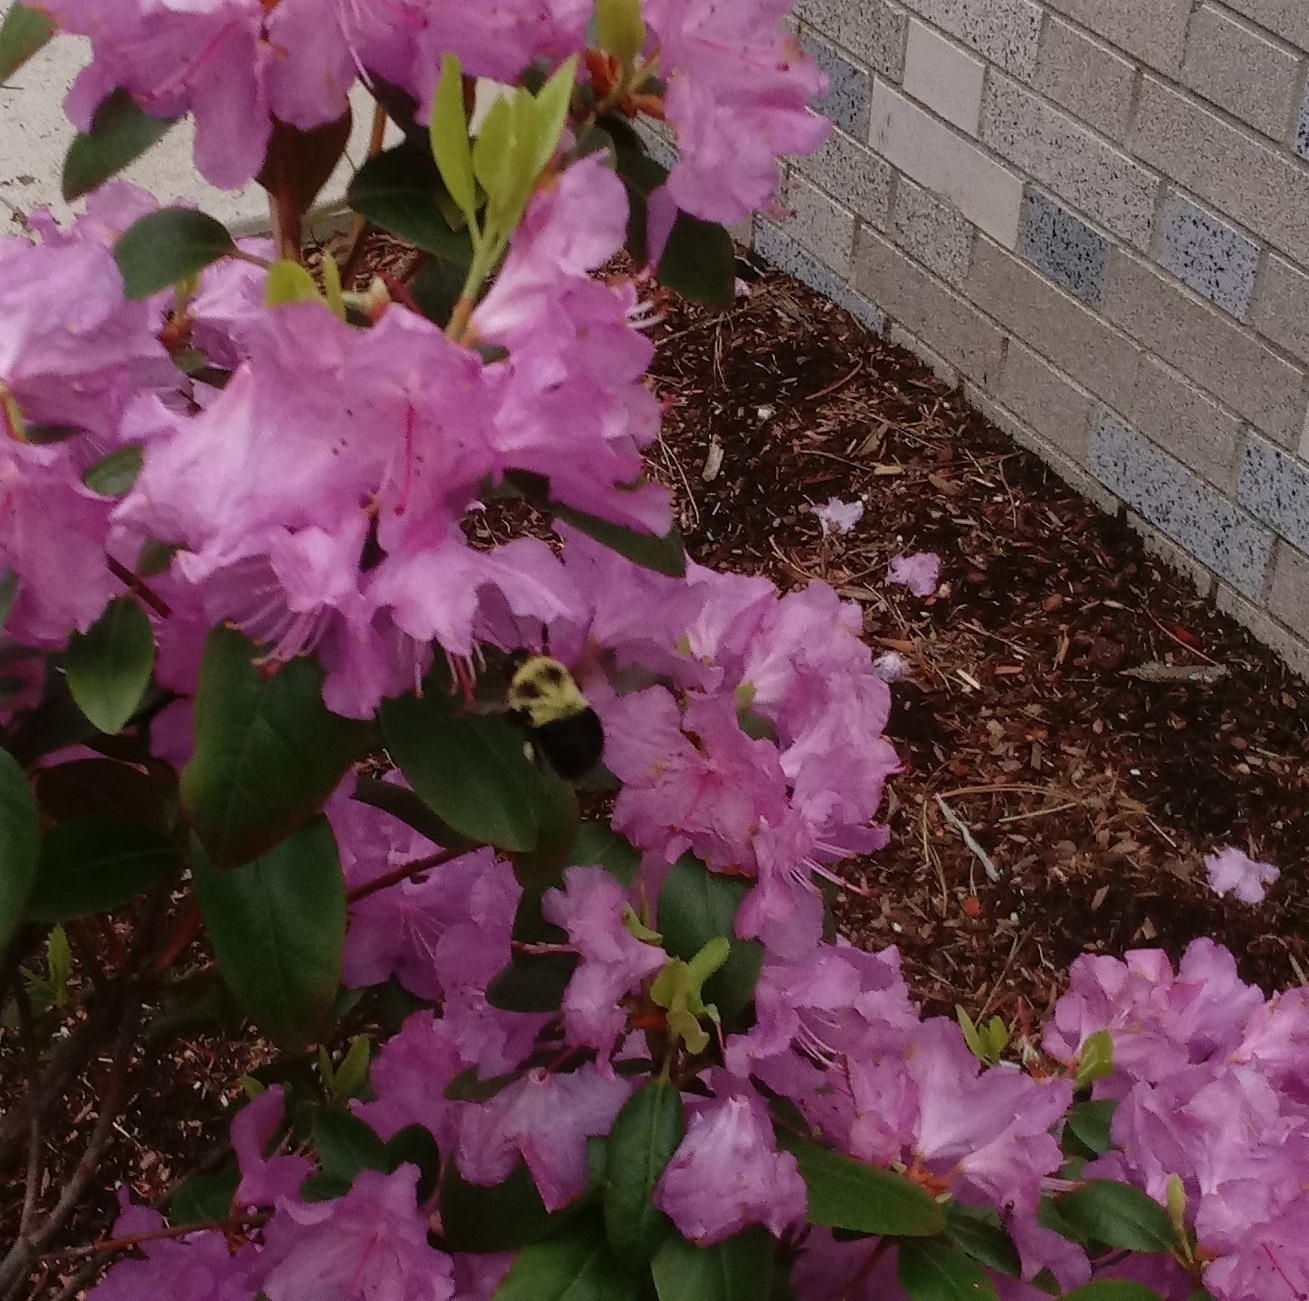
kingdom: Animalia
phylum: Arthropoda
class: Insecta
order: Hymenoptera
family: Apidae
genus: Bombus
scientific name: Bombus bimaculatus
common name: Two-spotted bumble bee
